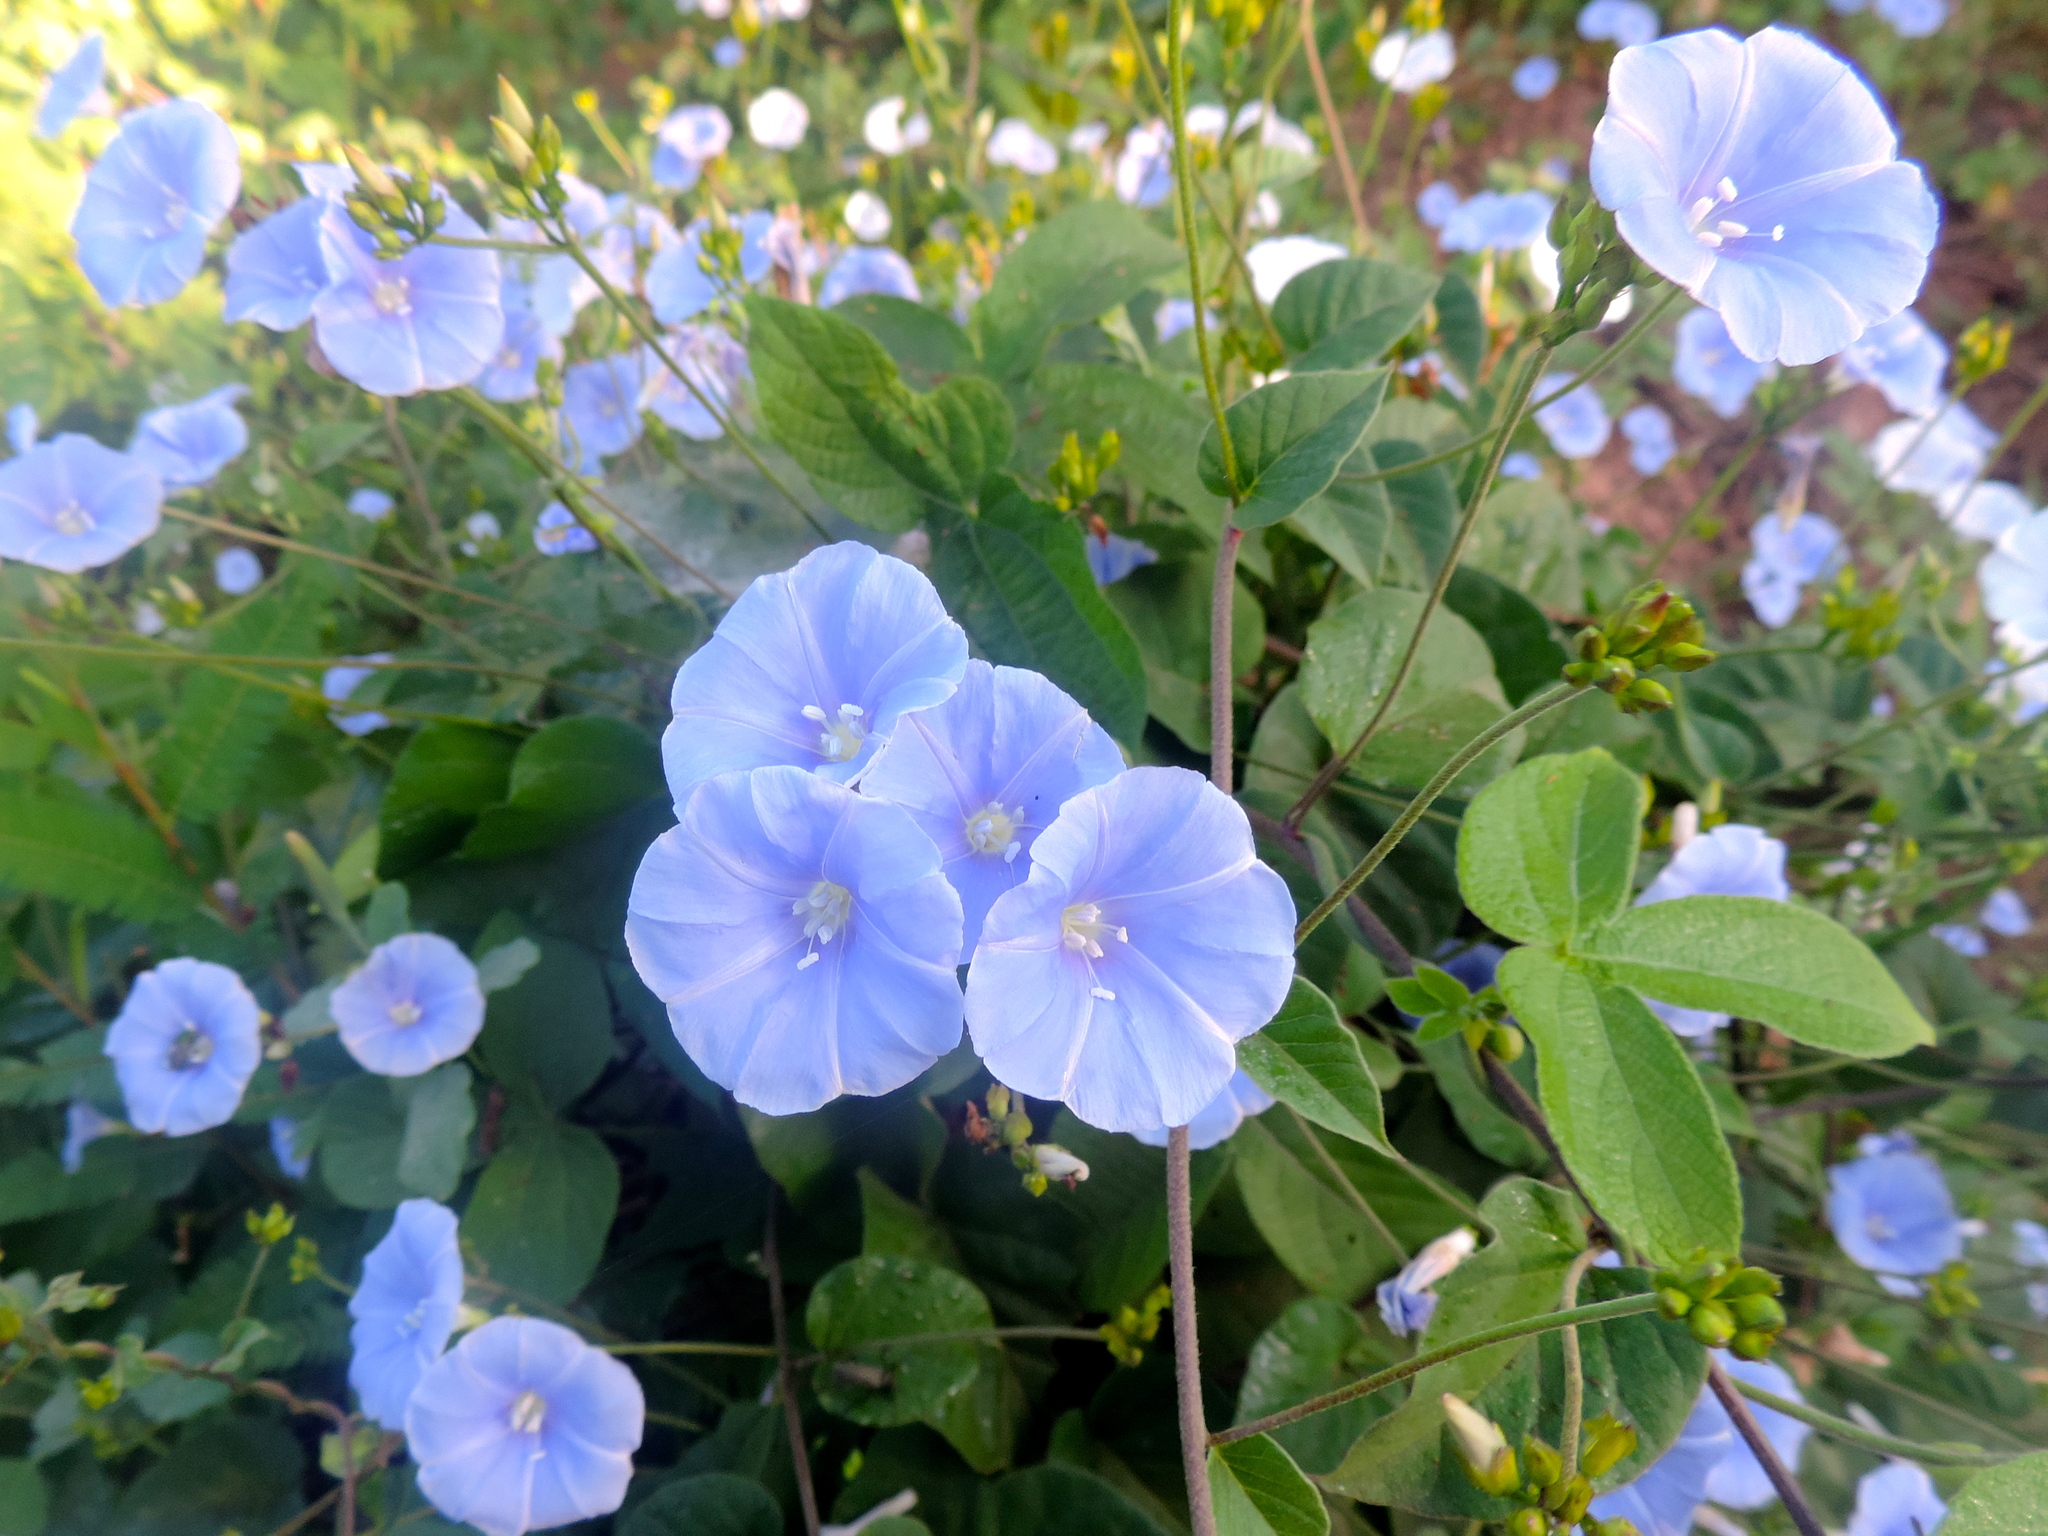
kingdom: Plantae
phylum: Tracheophyta
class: Magnoliopsida
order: Solanales
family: Convolvulaceae
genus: Jacquemontia
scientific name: Jacquemontia pentanthos
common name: Skyblue clustervine
